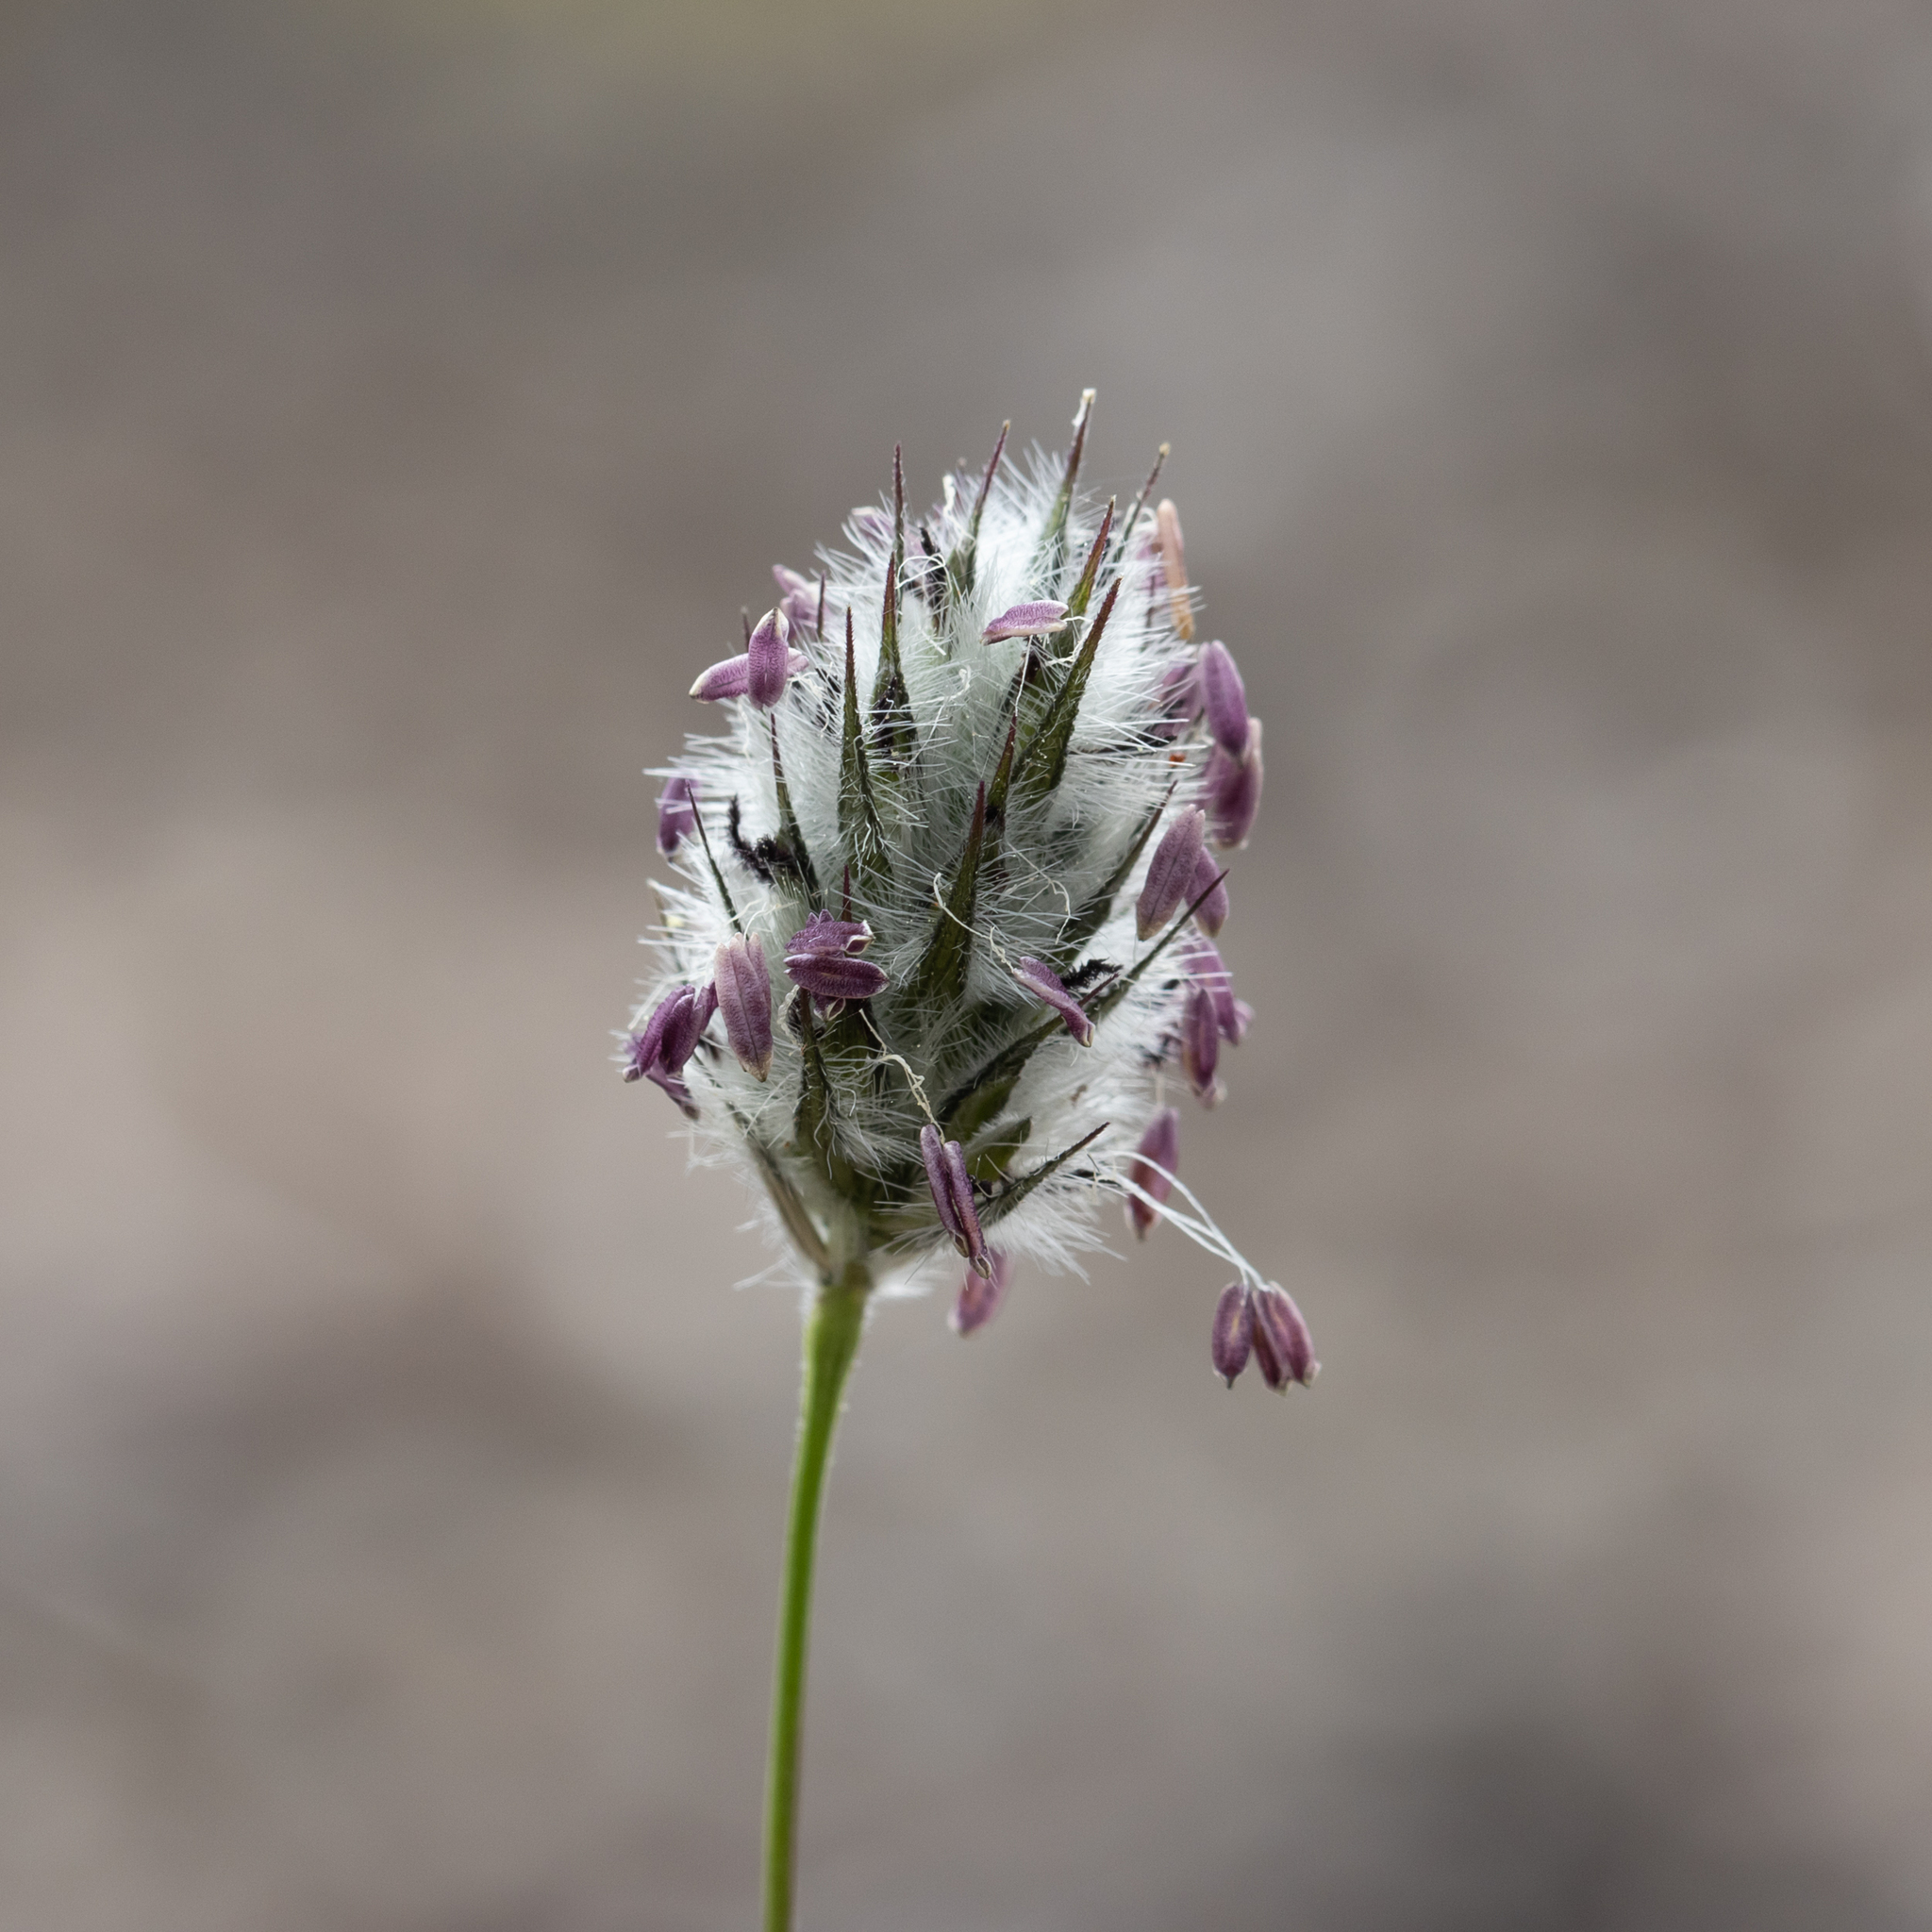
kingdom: Plantae
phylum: Tracheophyta
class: Liliopsida
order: Poales
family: Poaceae
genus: Neurachne
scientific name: Neurachne alopecuroidea
